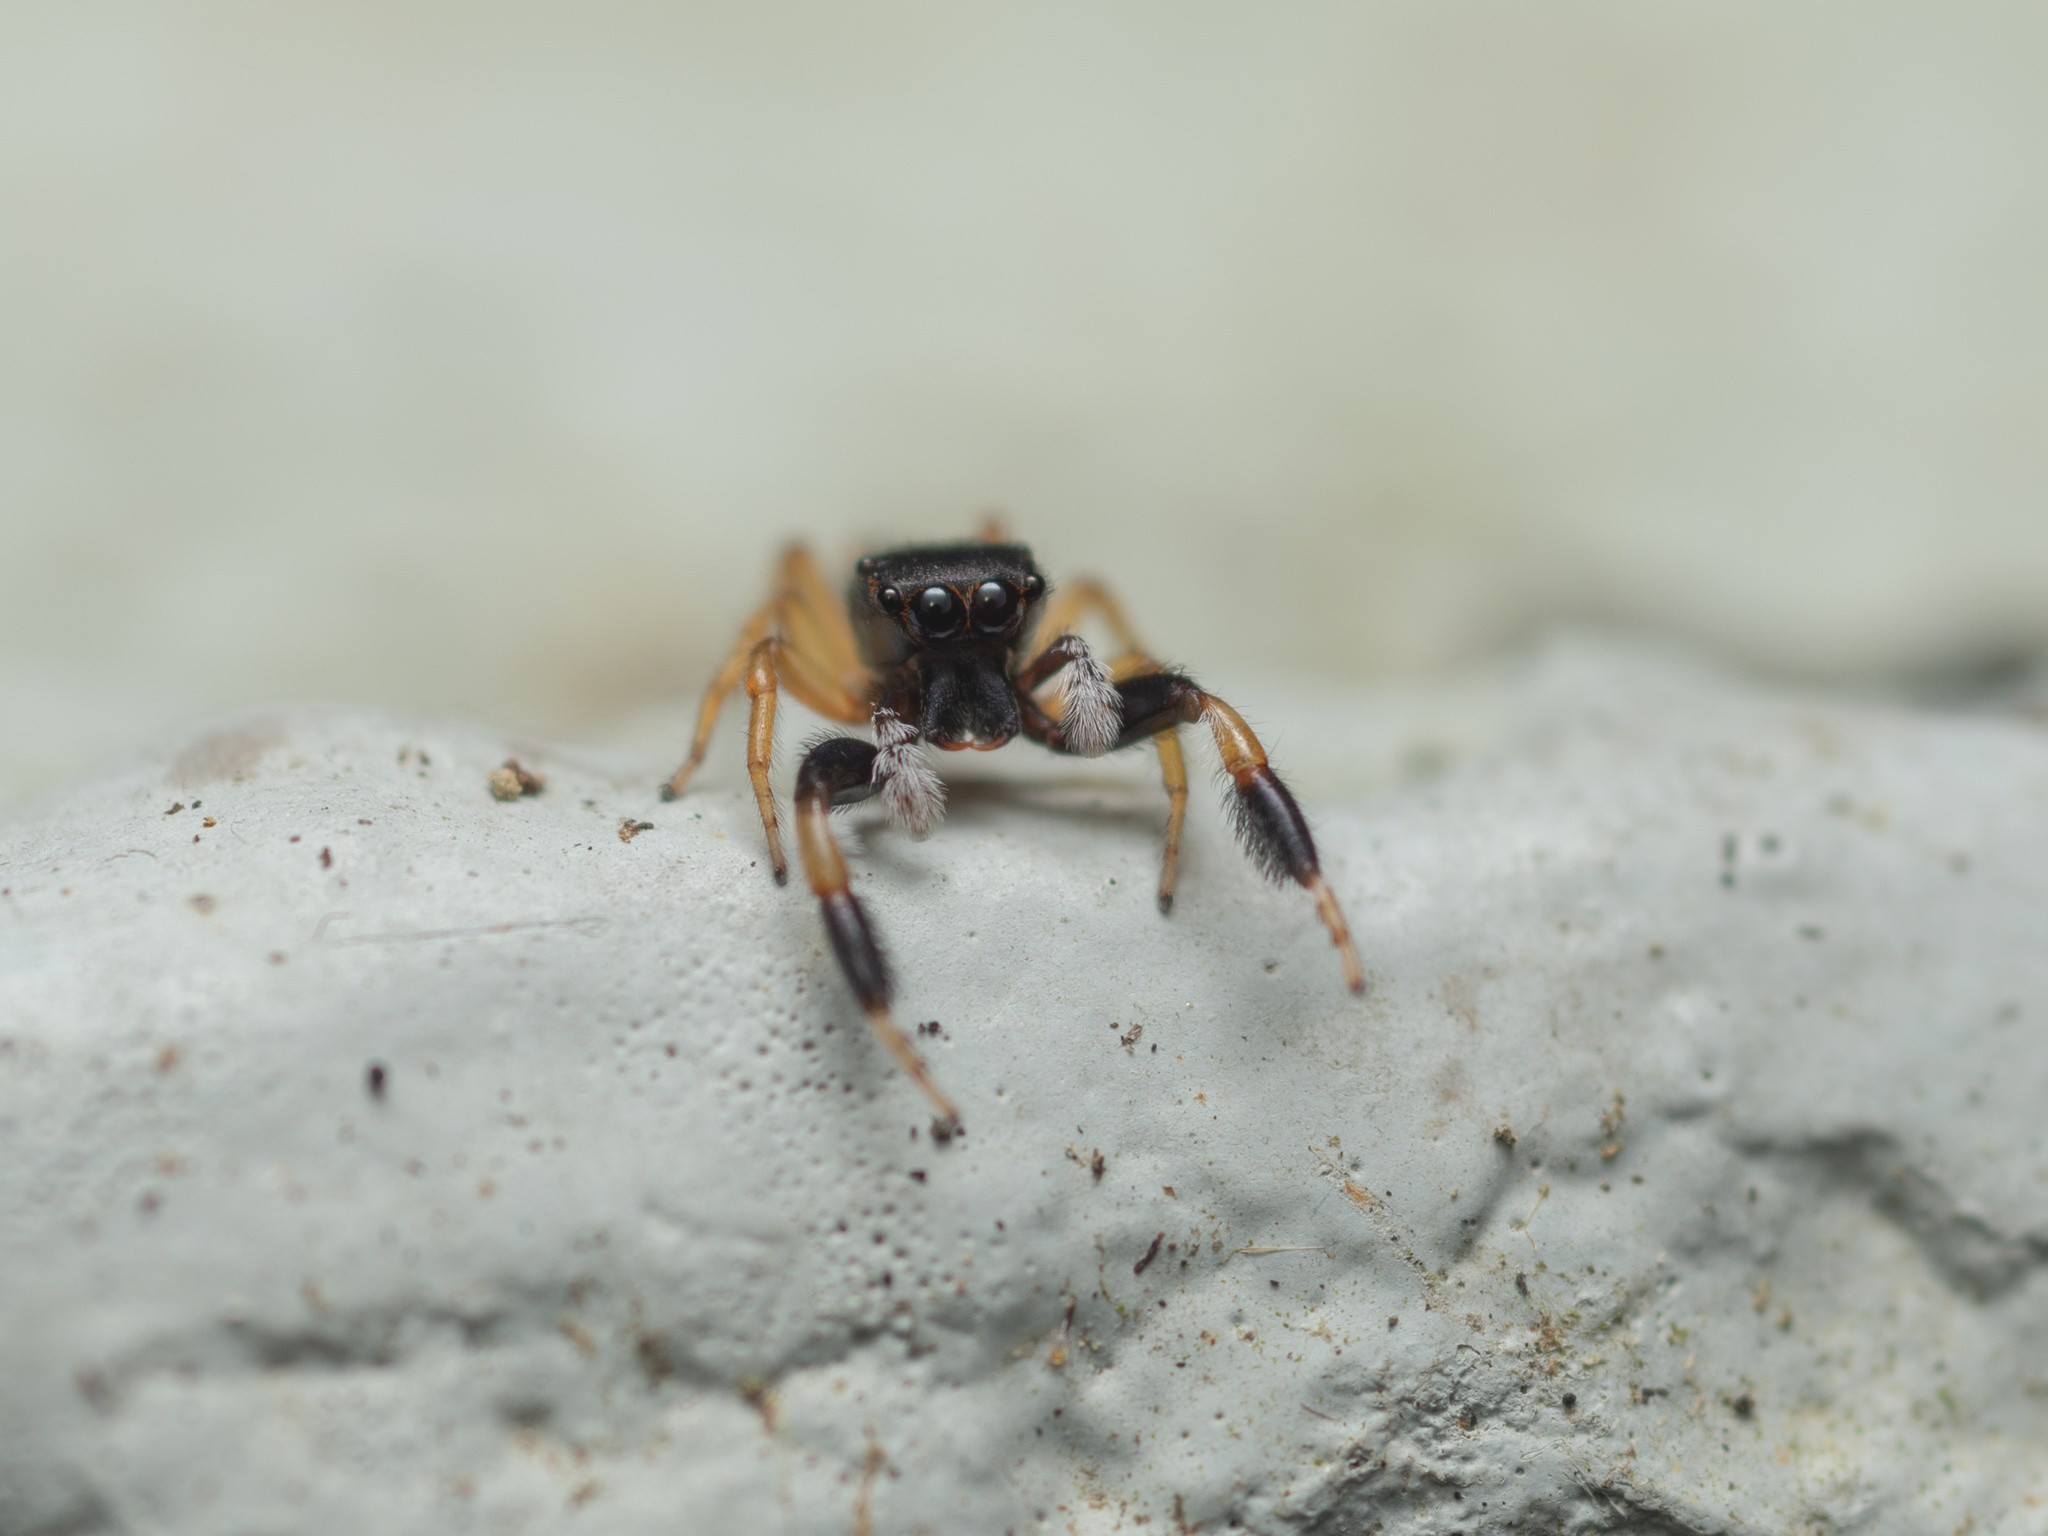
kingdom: Animalia
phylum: Arthropoda
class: Arachnida
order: Araneae
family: Salticidae
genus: Nungia
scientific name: Nungia epigynalis
